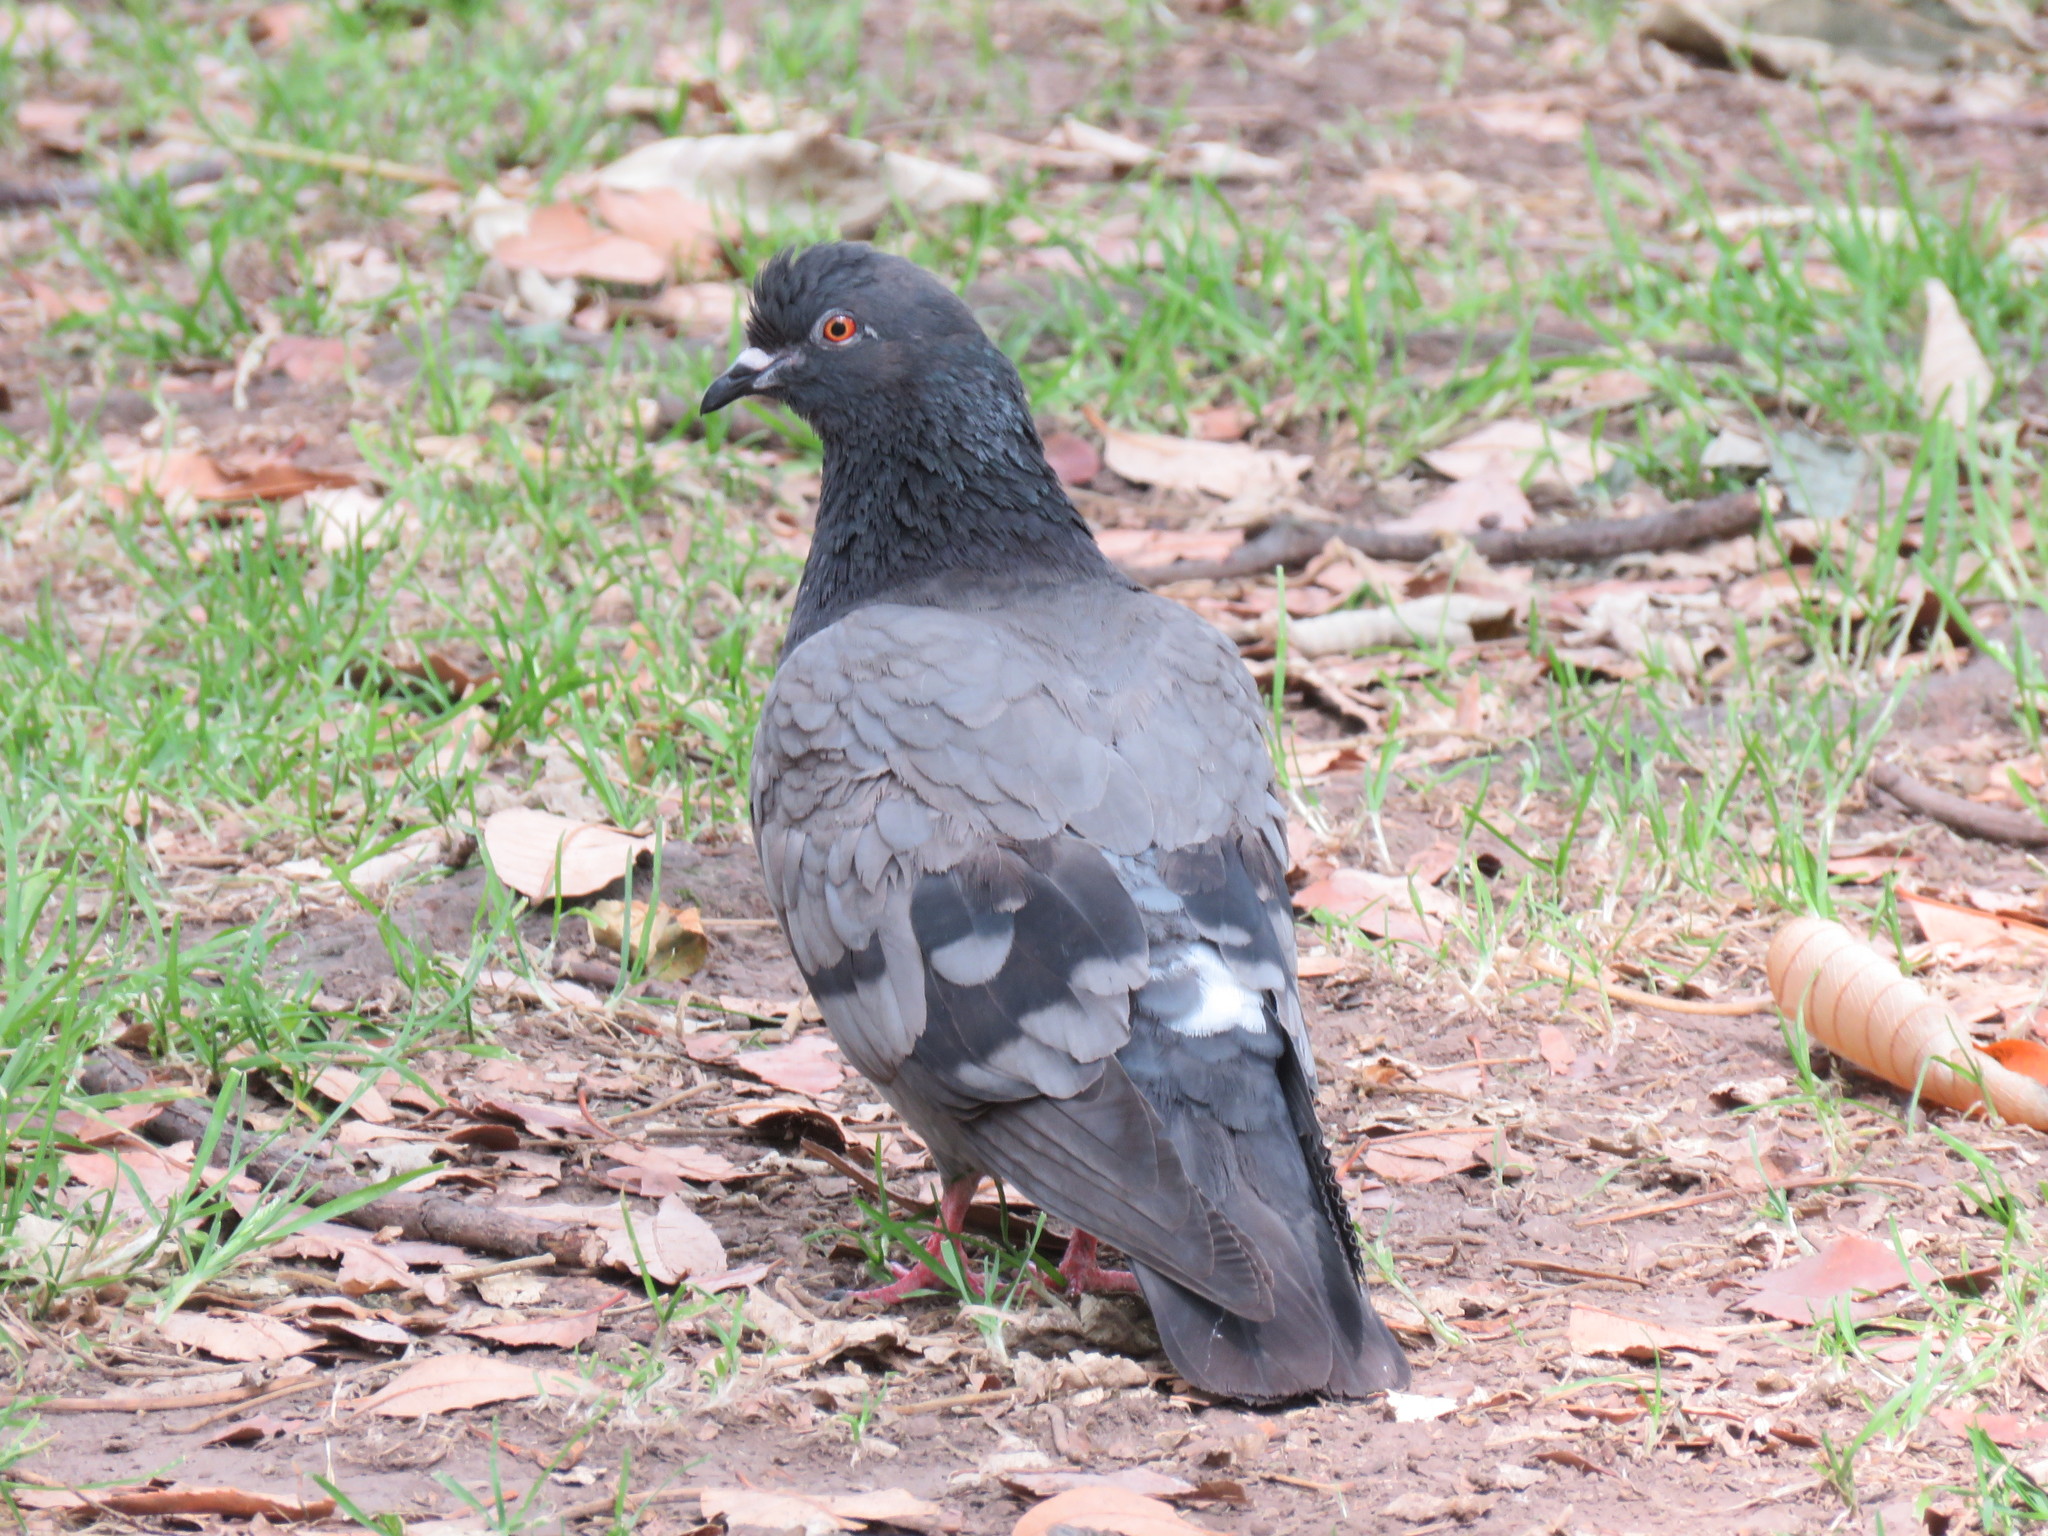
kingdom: Animalia
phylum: Chordata
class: Aves
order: Columbiformes
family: Columbidae
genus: Columba
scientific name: Columba livia
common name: Rock pigeon
